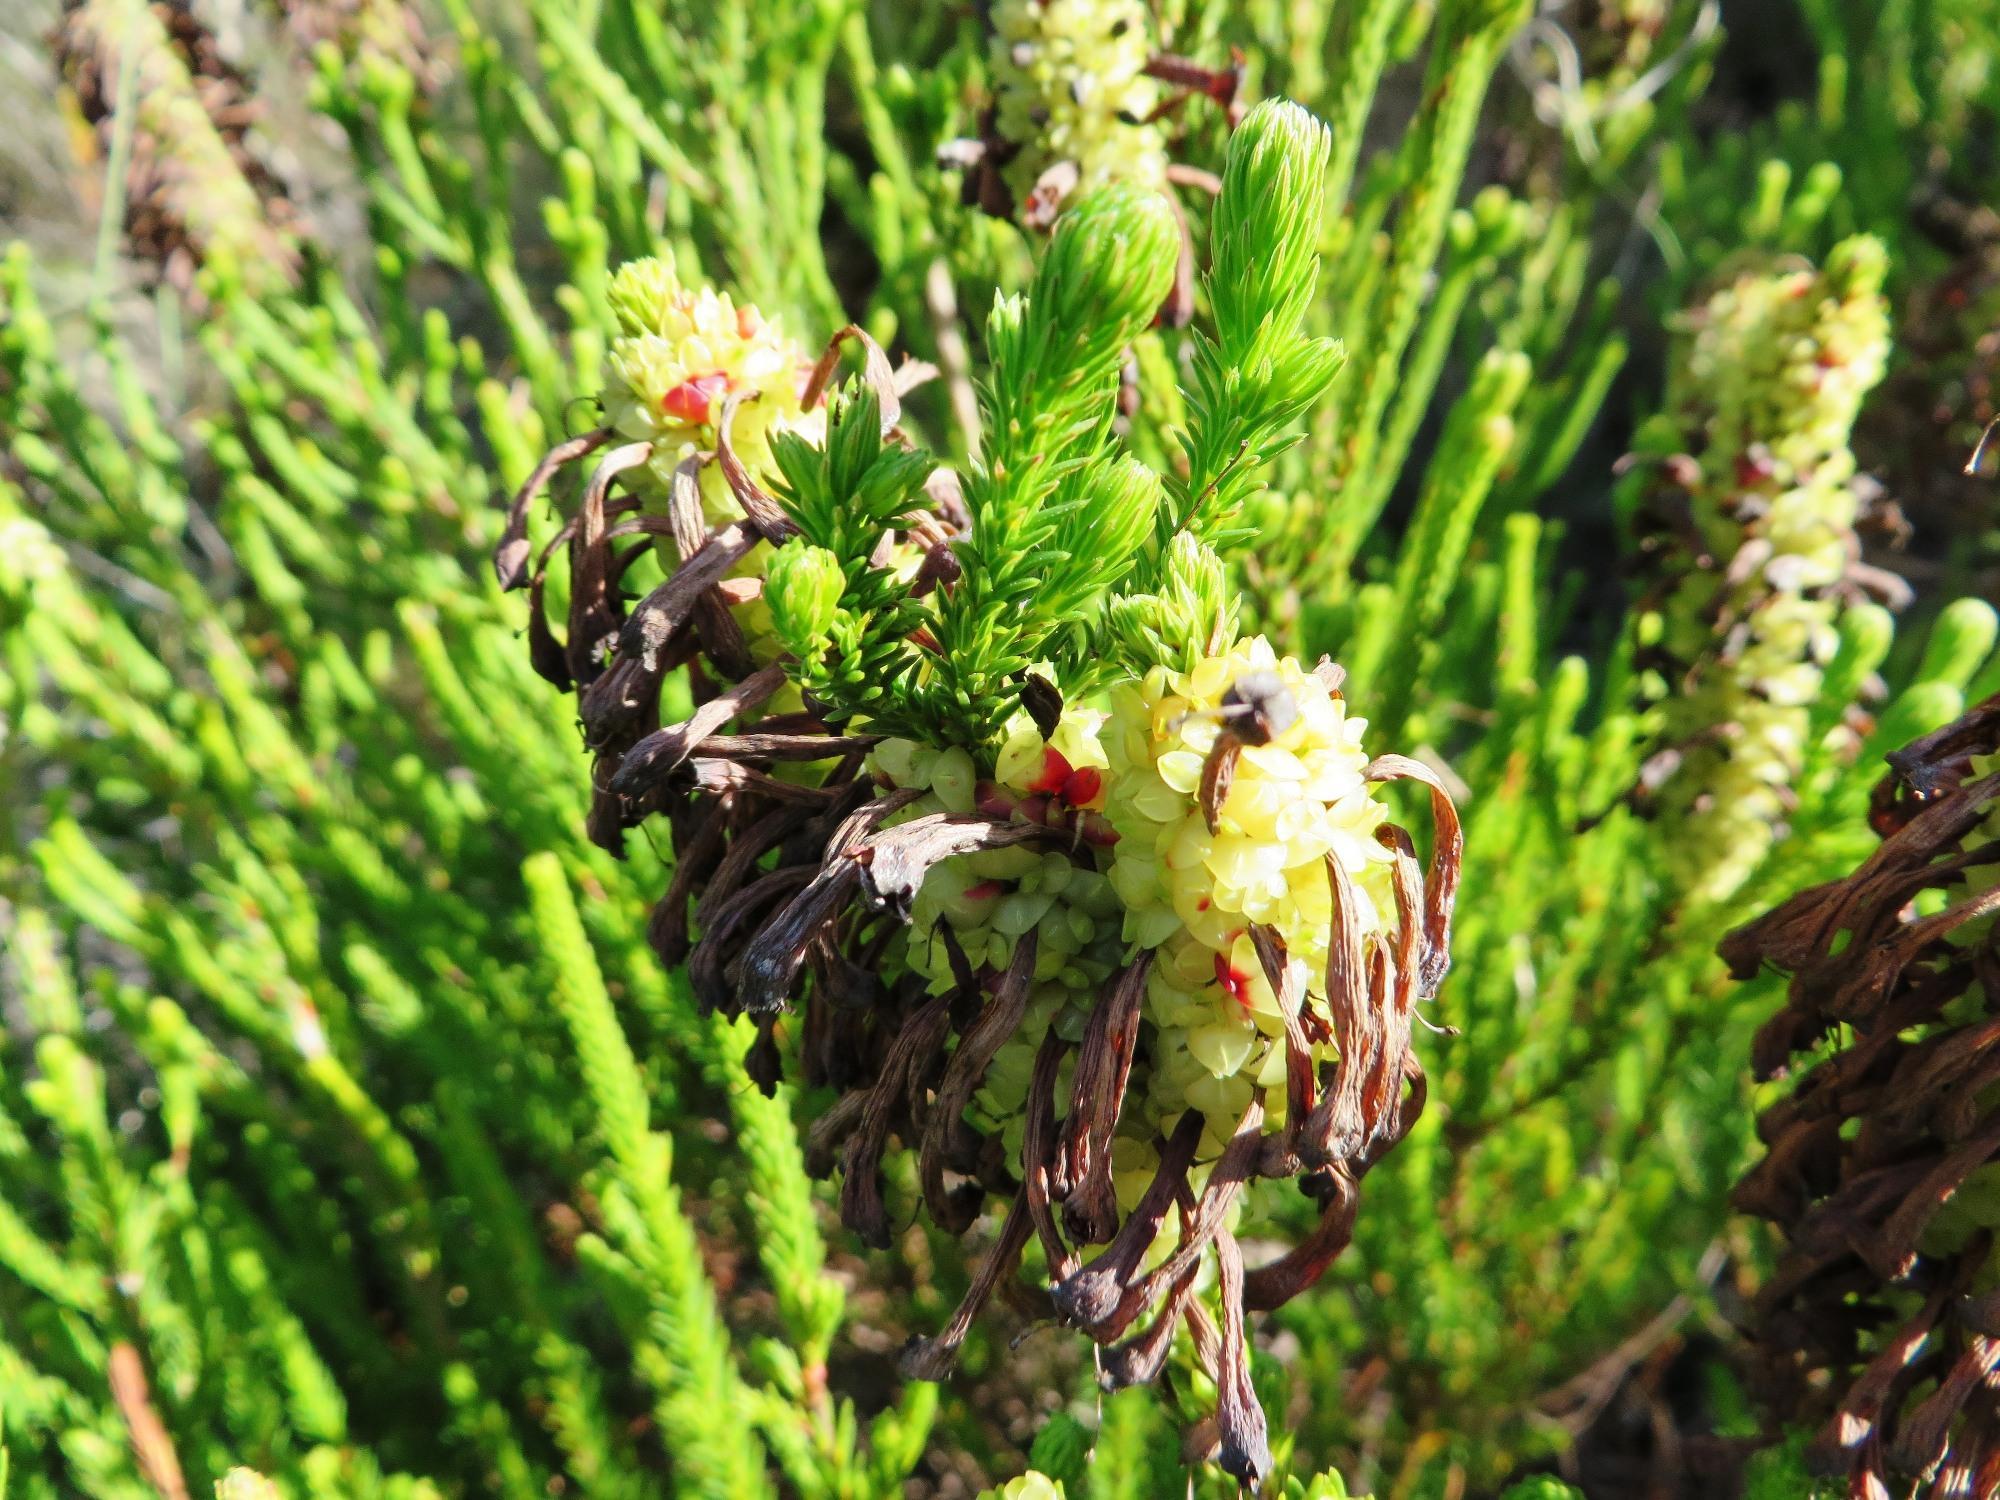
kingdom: Plantae
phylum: Tracheophyta
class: Magnoliopsida
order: Ericales
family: Ericaceae
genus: Erica
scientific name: Erica sessiliflora
